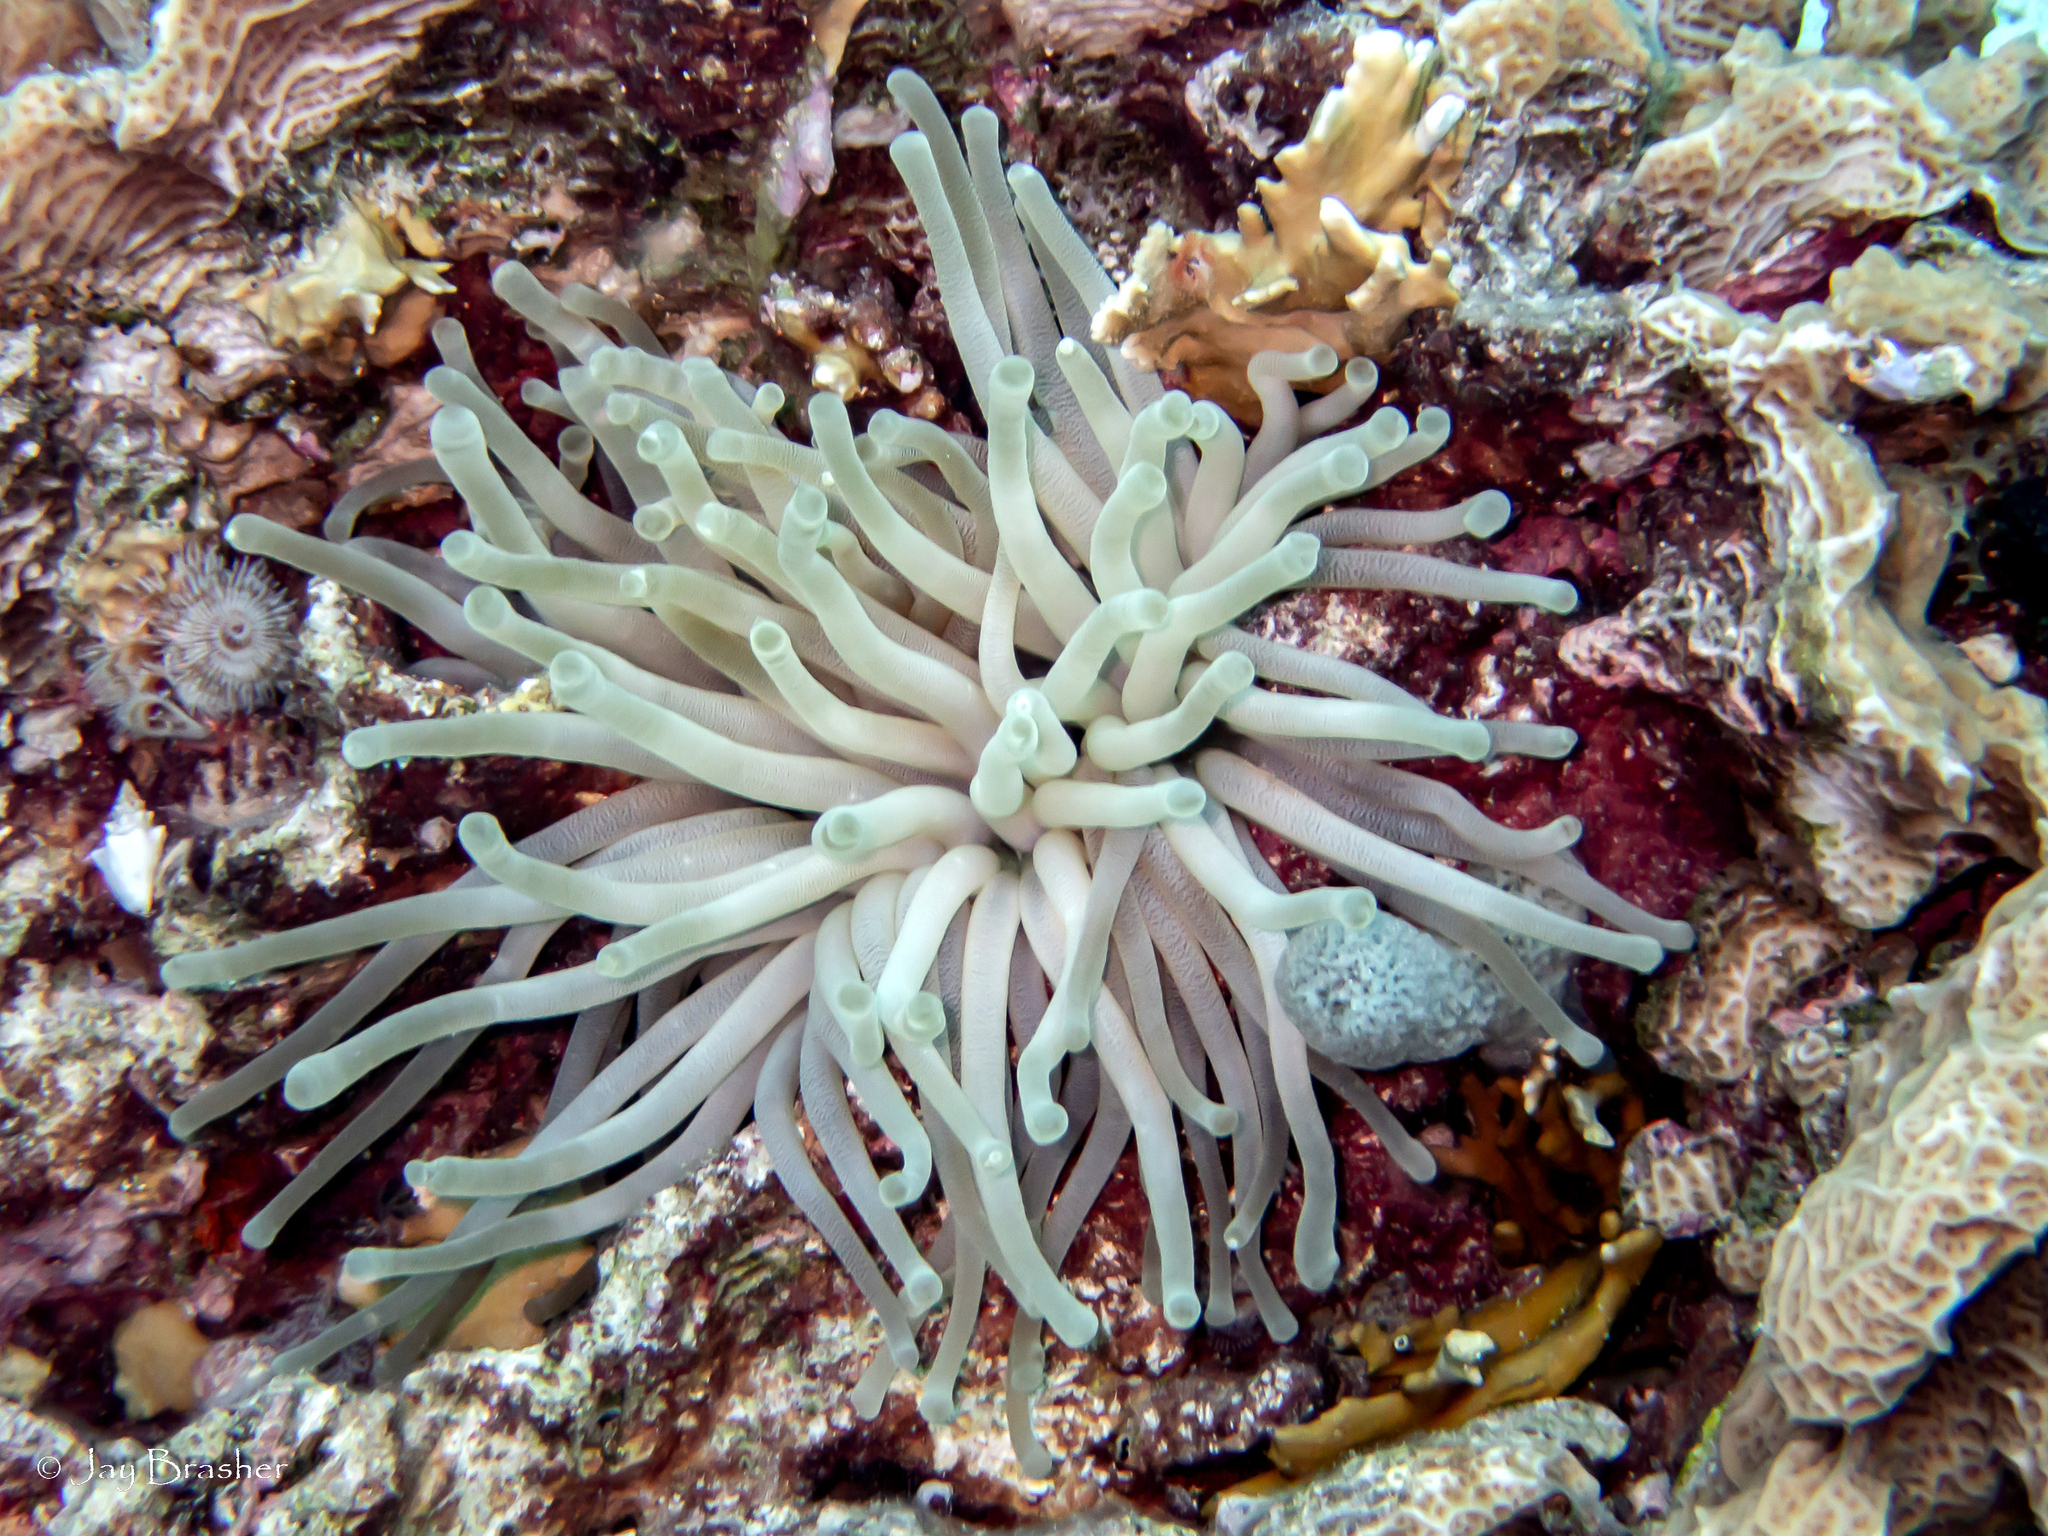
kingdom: Animalia
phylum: Cnidaria
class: Anthozoa
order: Actiniaria
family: Actiniidae
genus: Condylactis
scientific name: Condylactis gigantea
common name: Giant caribbean anemone
